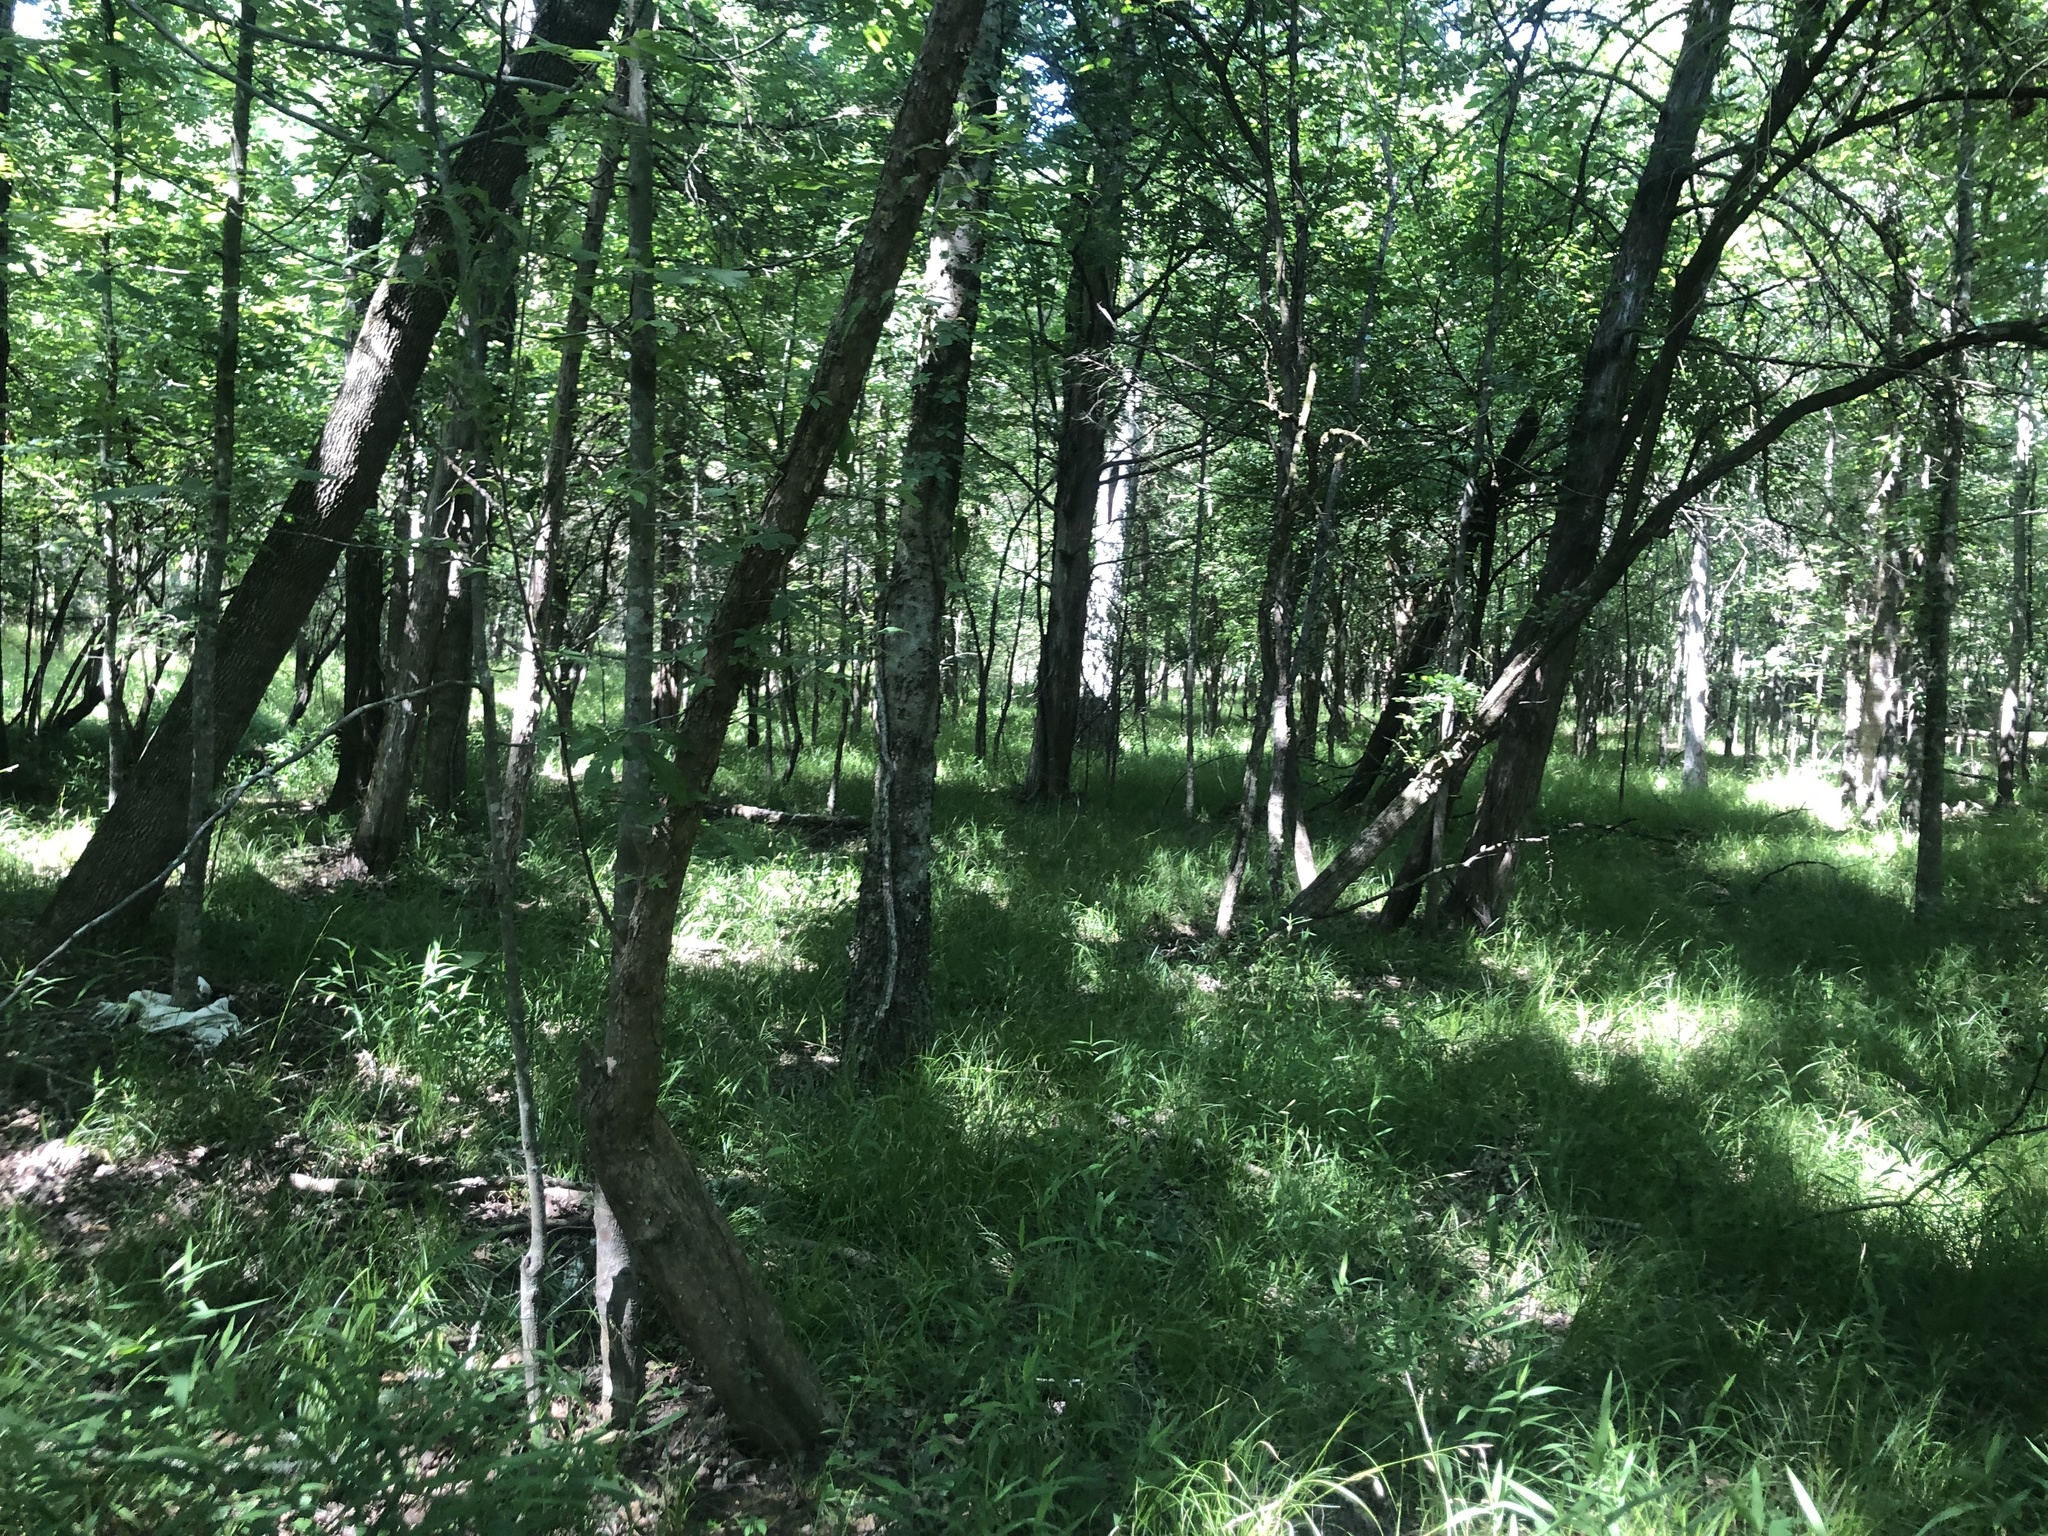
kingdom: Plantae
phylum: Tracheophyta
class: Liliopsida
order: Poales
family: Cyperaceae
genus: Carex
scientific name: Carex cherokeensis
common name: Cherokee sedge
